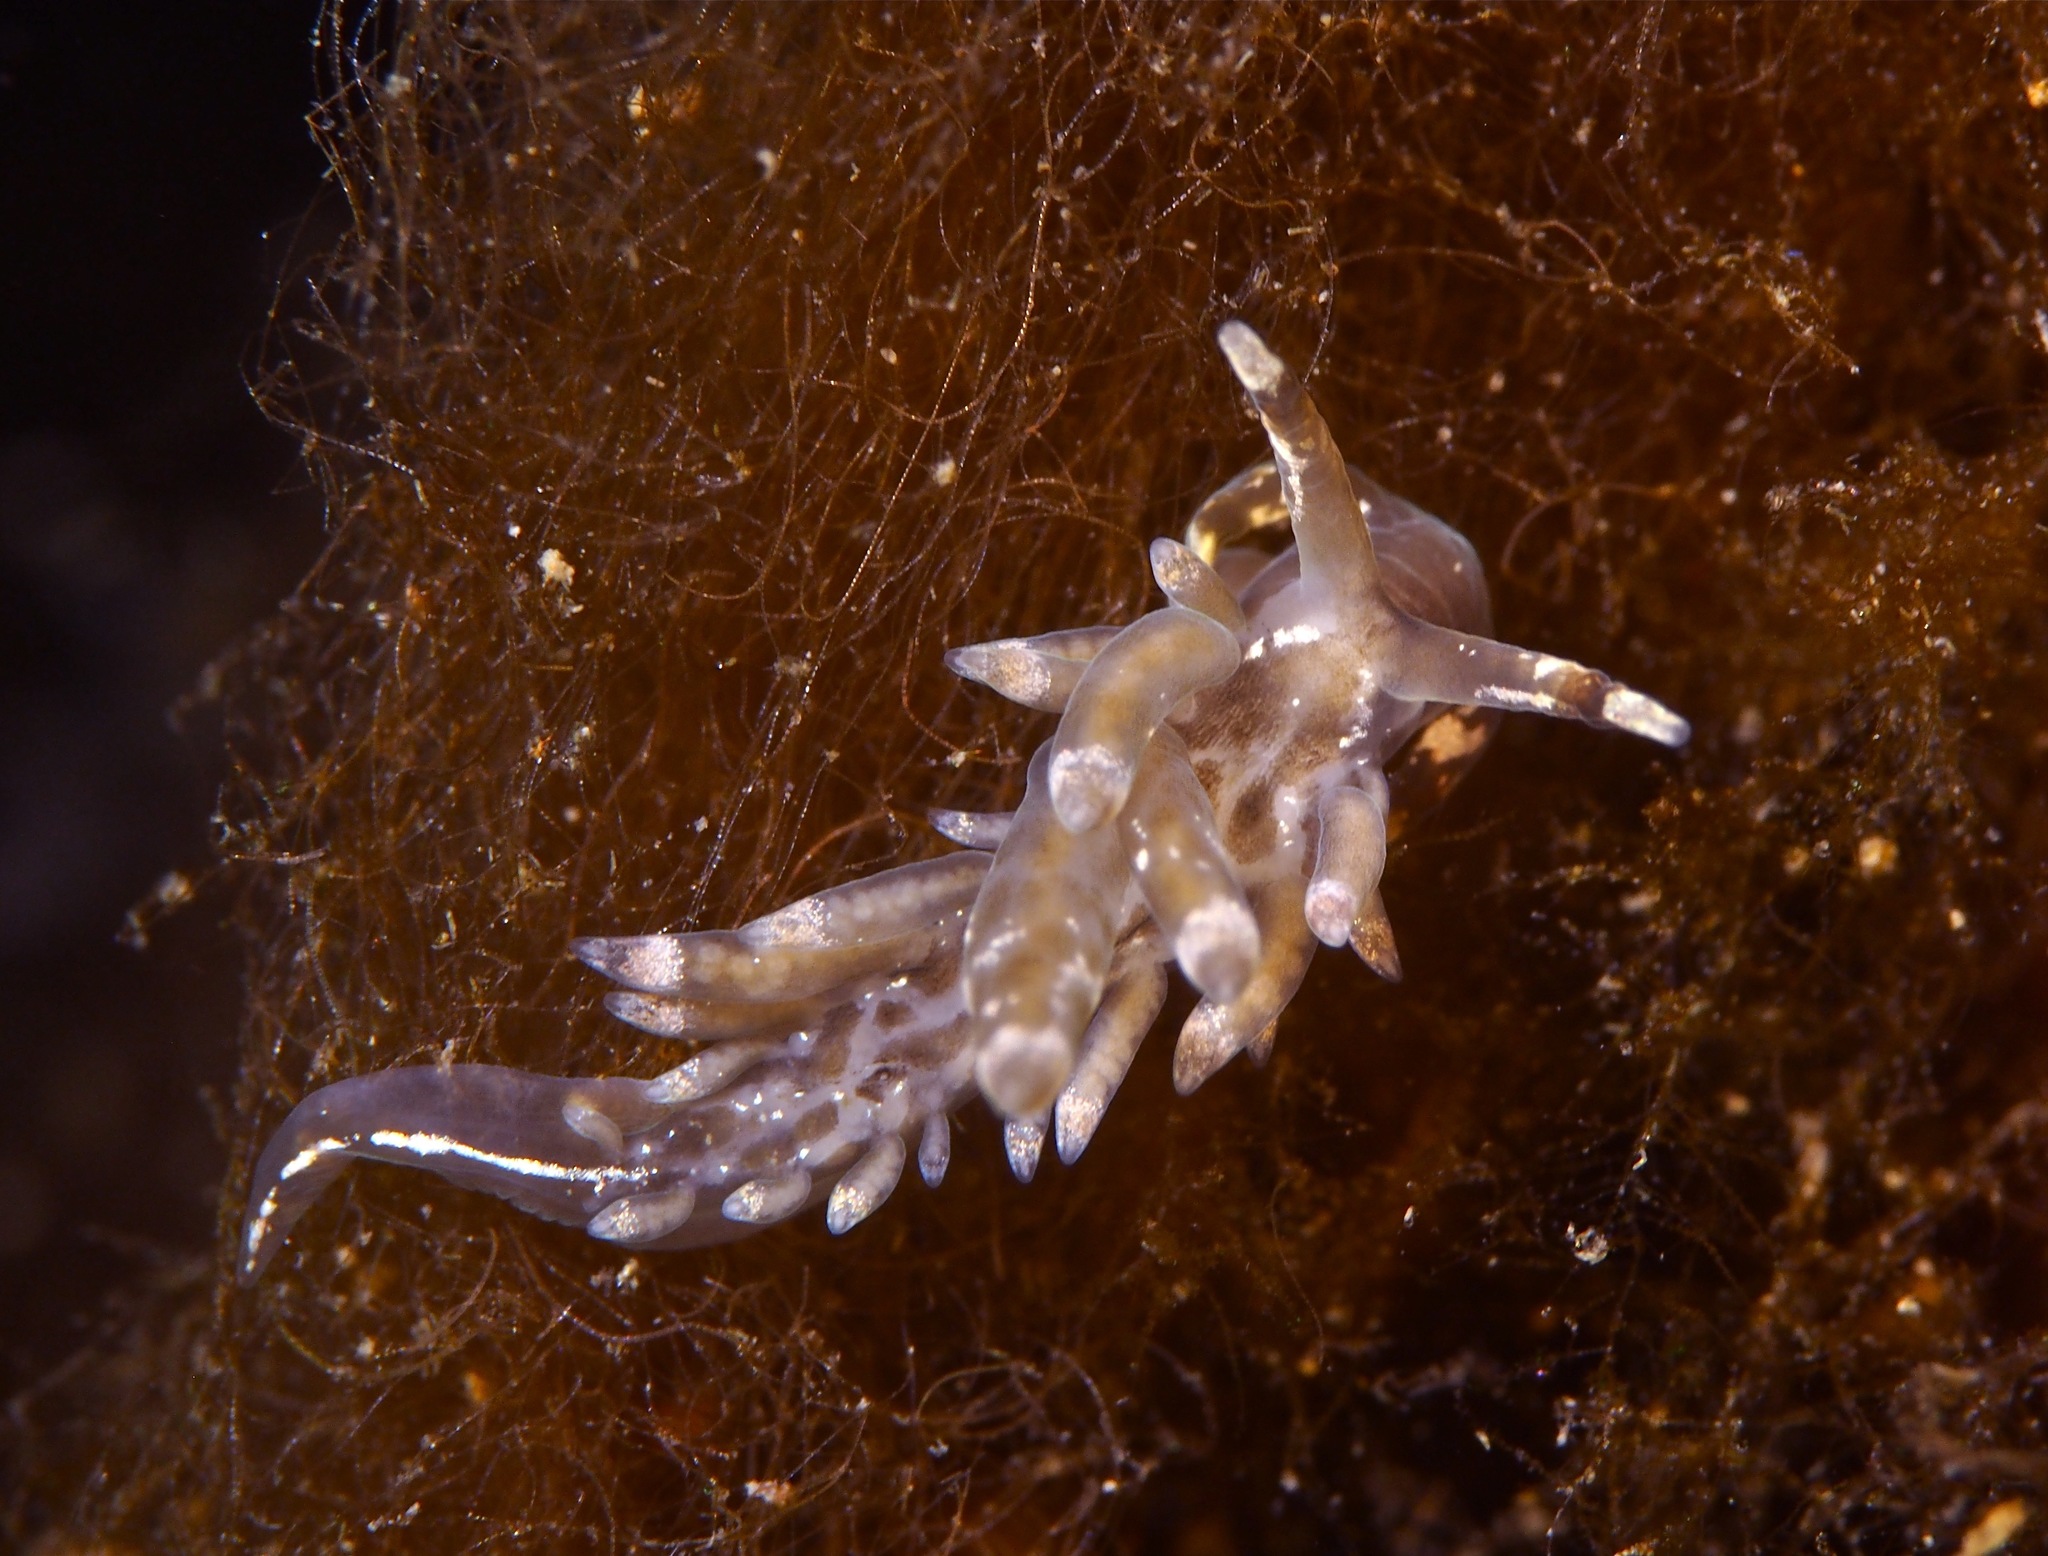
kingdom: Animalia
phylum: Mollusca
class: Gastropoda
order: Nudibranchia
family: Eubranchidae
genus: Amphorina
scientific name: Amphorina viriola
